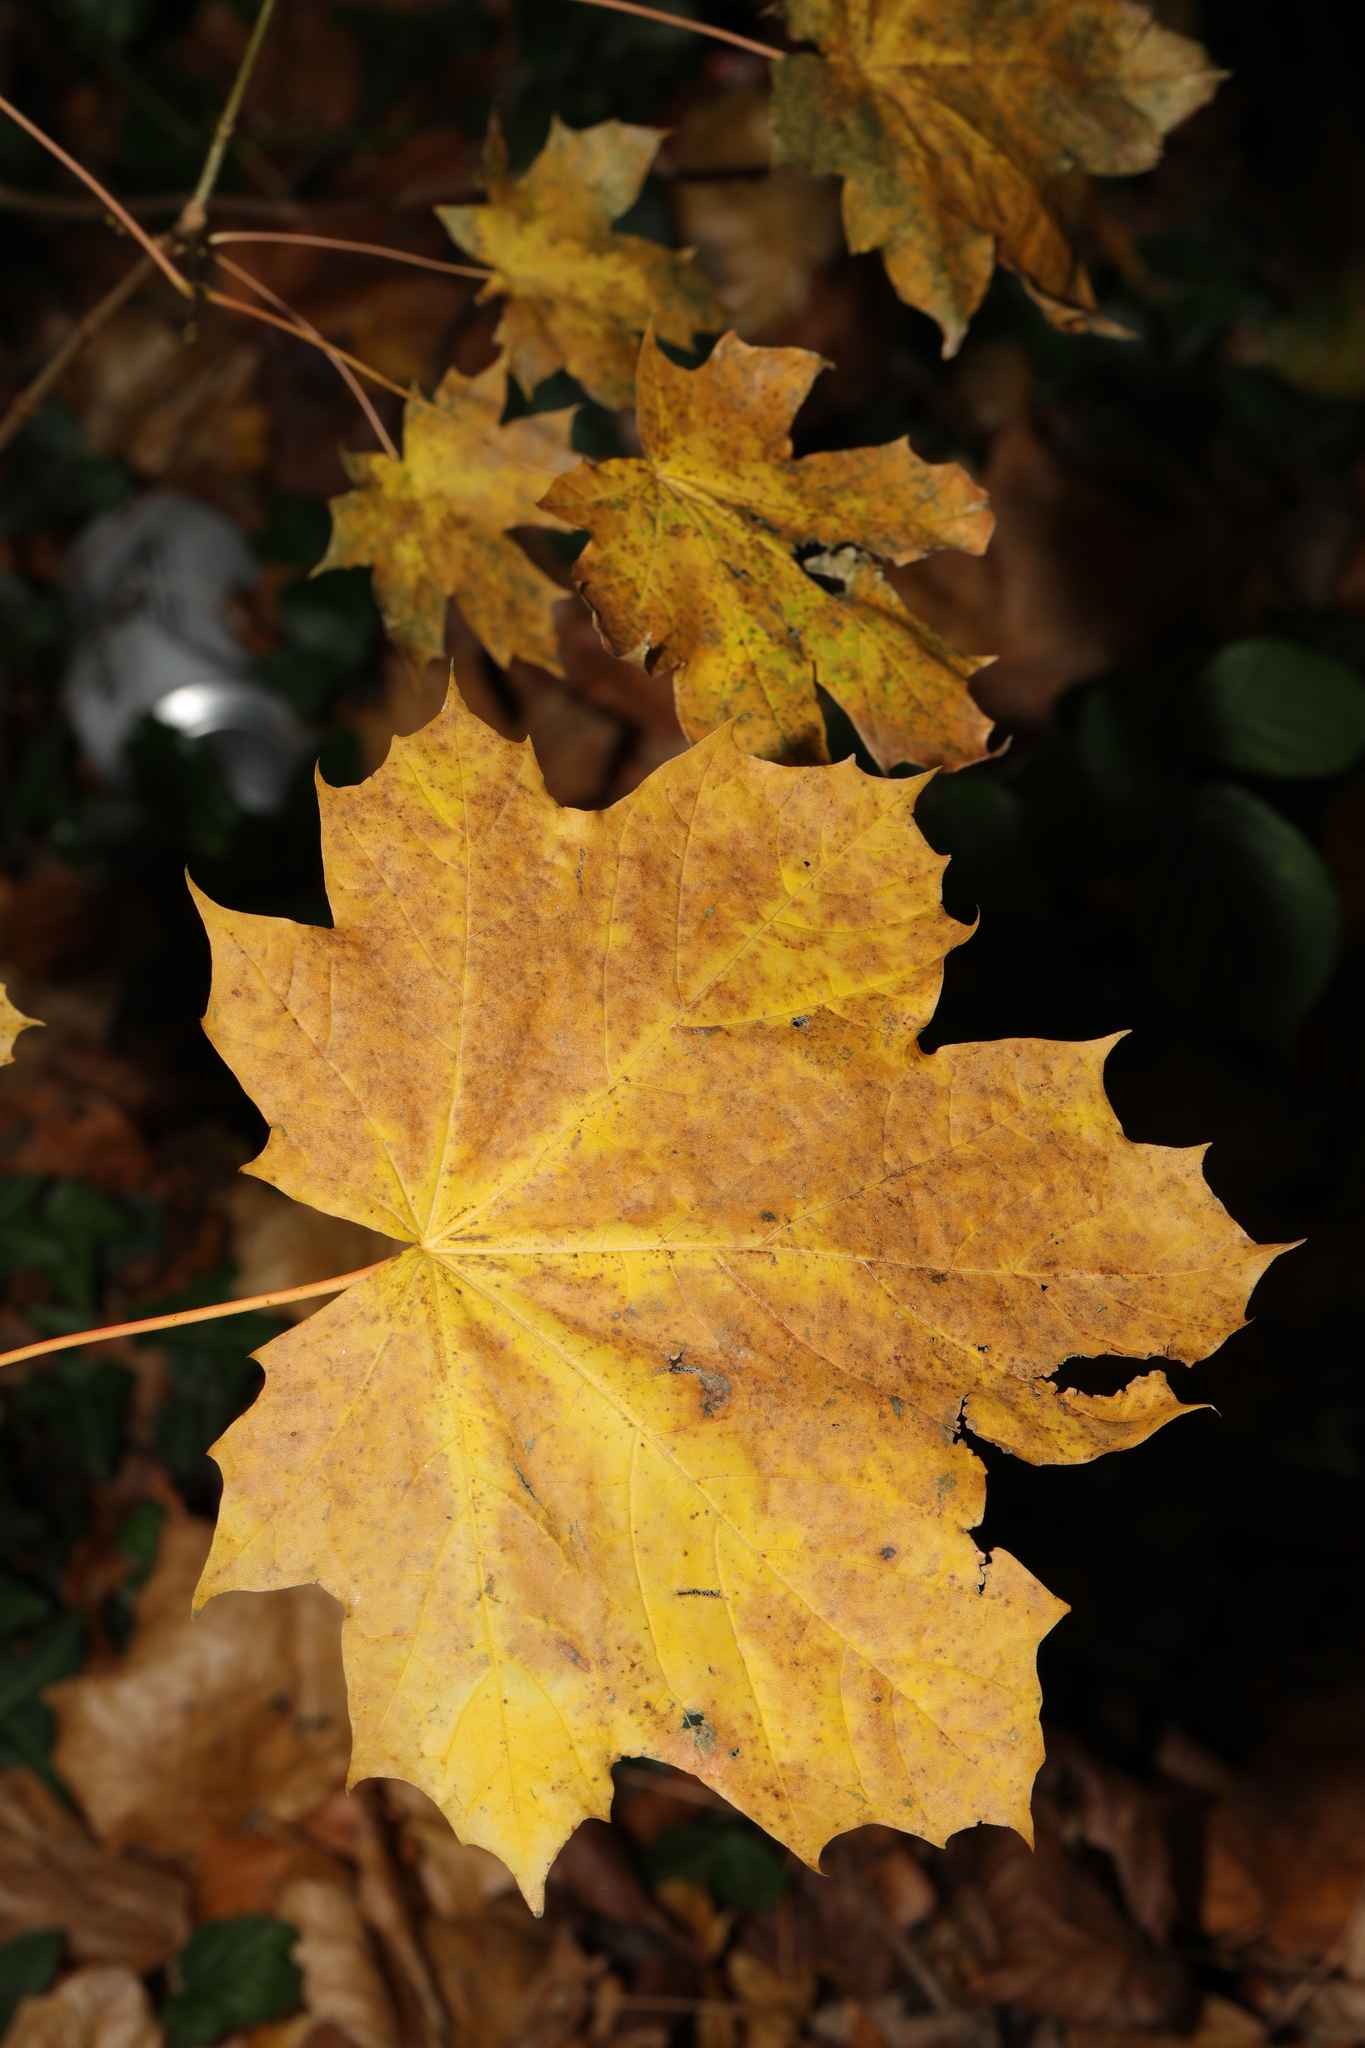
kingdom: Plantae
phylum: Tracheophyta
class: Magnoliopsida
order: Sapindales
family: Sapindaceae
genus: Acer
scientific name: Acer platanoides
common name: Norway maple
